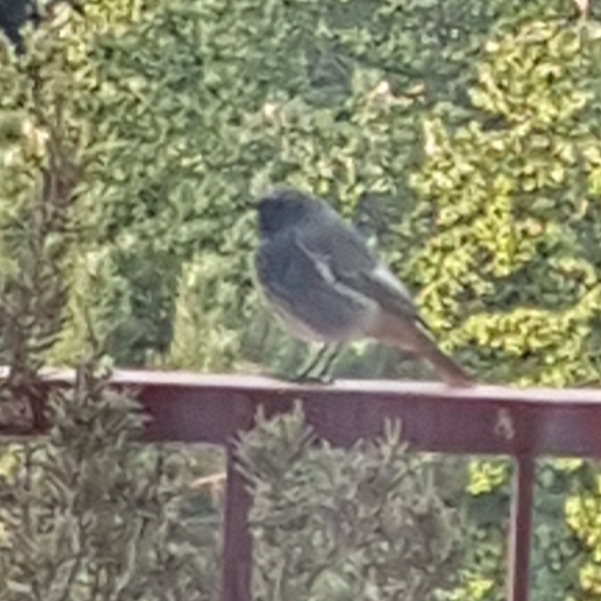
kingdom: Animalia
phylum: Chordata
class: Aves
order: Passeriformes
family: Muscicapidae
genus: Phoenicurus
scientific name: Phoenicurus ochruros
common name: Black redstart
